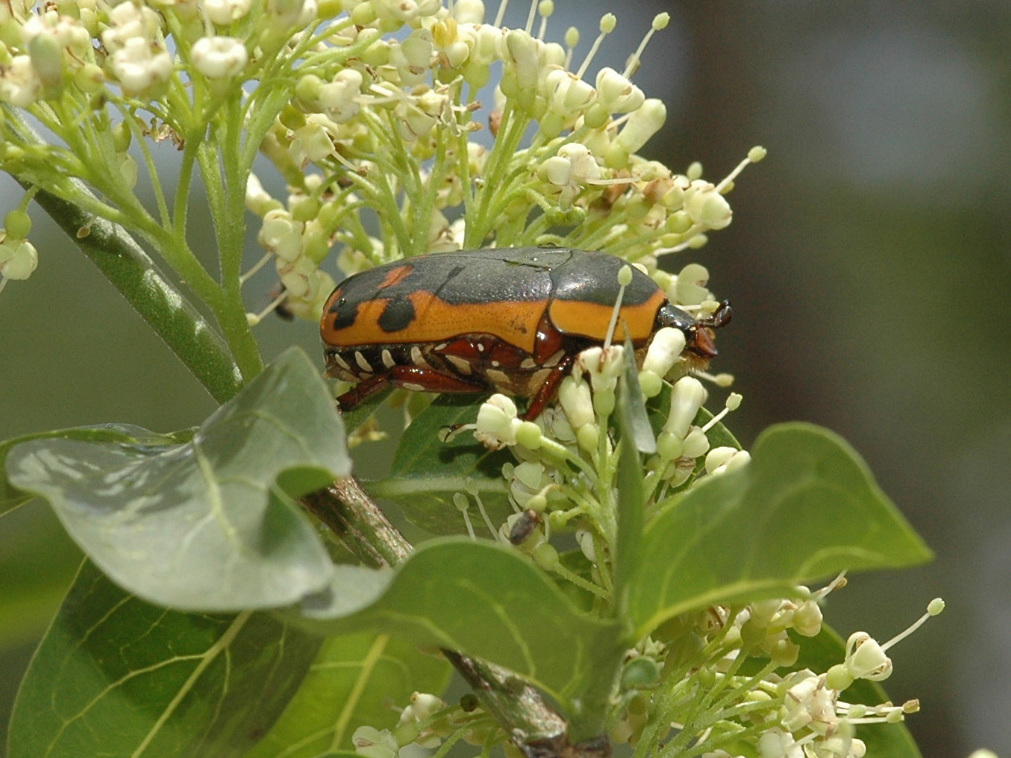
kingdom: Animalia
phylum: Arthropoda
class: Insecta
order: Coleoptera
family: Scarabaeidae
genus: Marmylida
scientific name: Marmylida impressa
